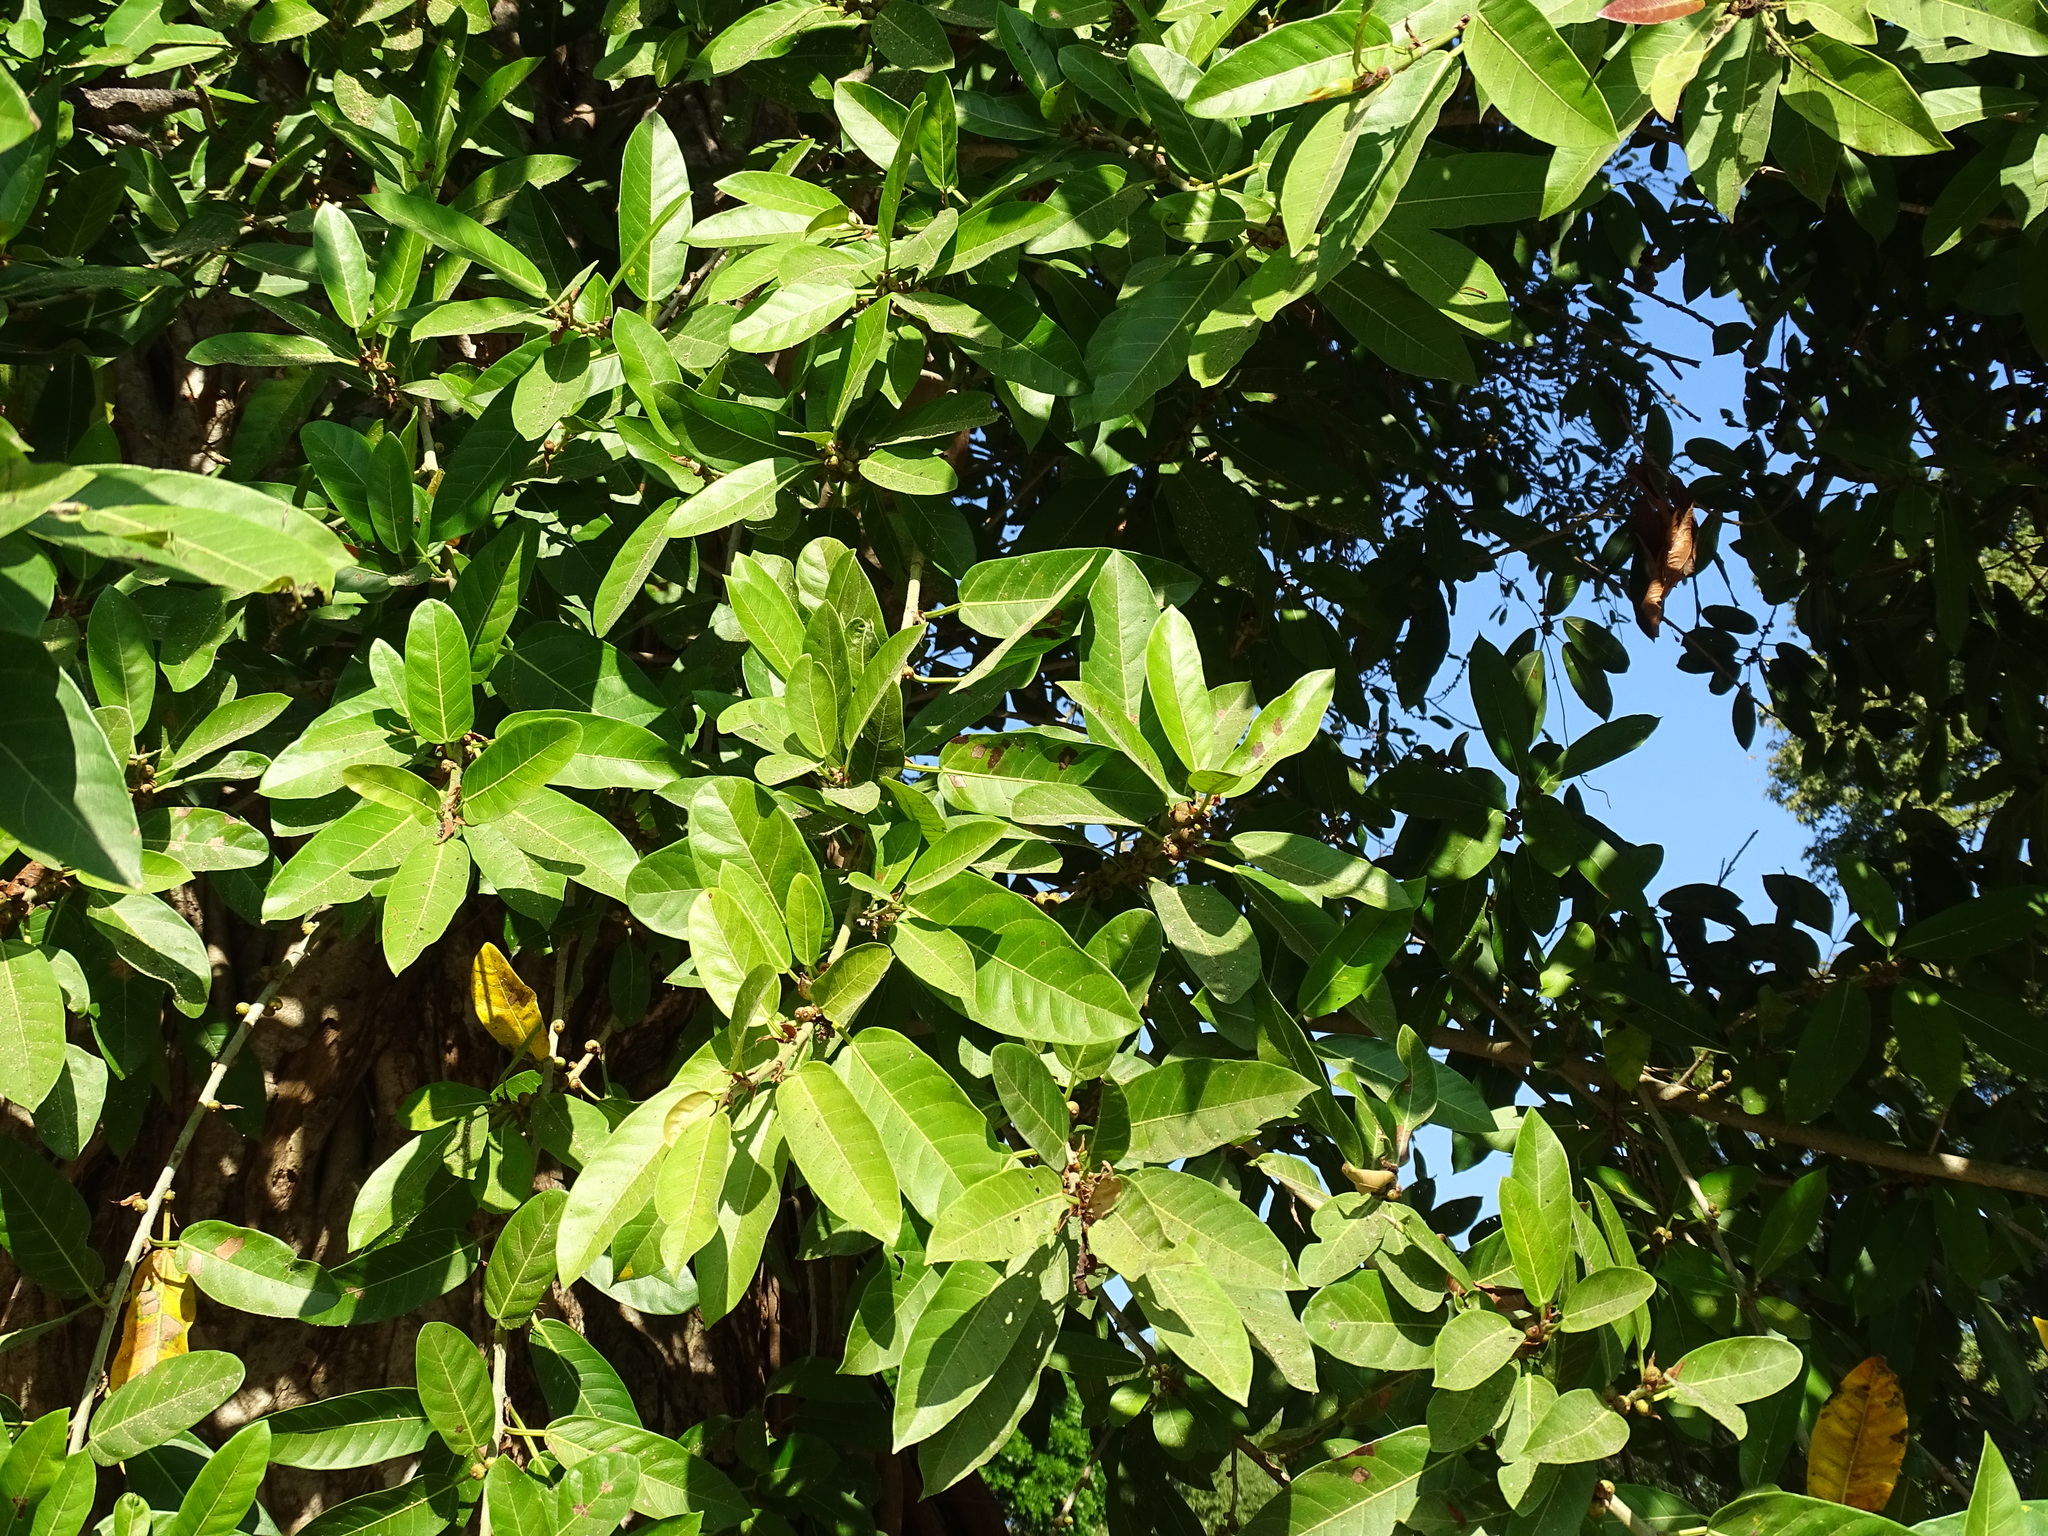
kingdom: Plantae
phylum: Tracheophyta
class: Magnoliopsida
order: Rosales
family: Moraceae
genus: Ficus
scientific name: Ficus costaricana
